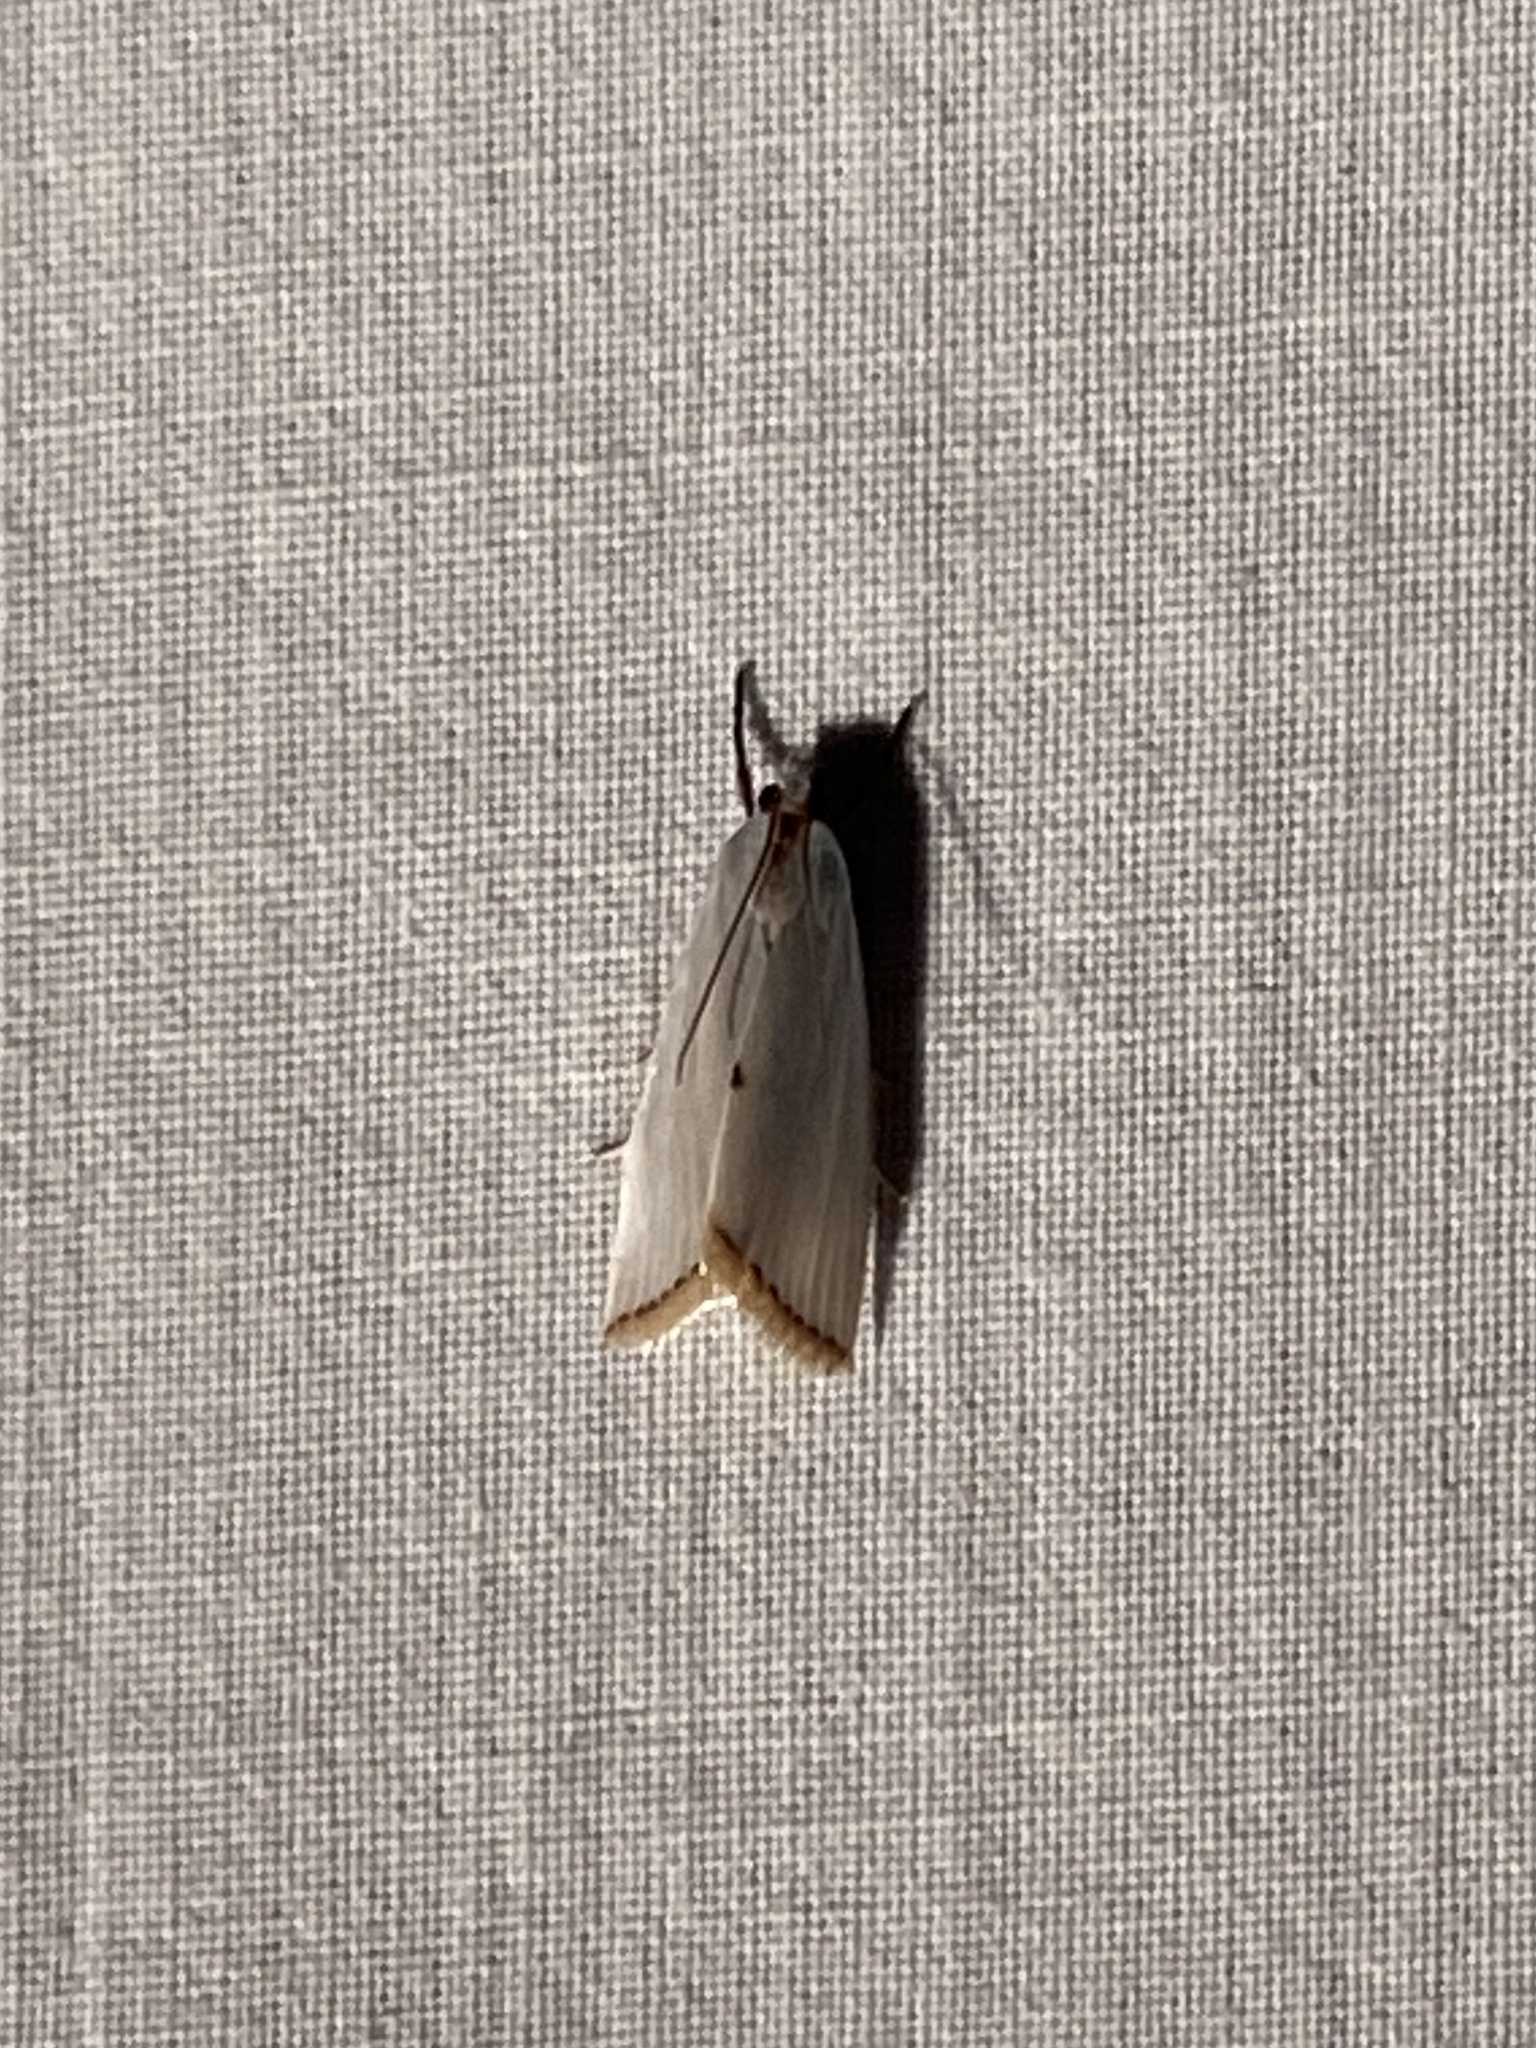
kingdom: Animalia
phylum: Arthropoda
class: Insecta
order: Lepidoptera
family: Crambidae
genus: Argyria
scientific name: Argyria nivalis
